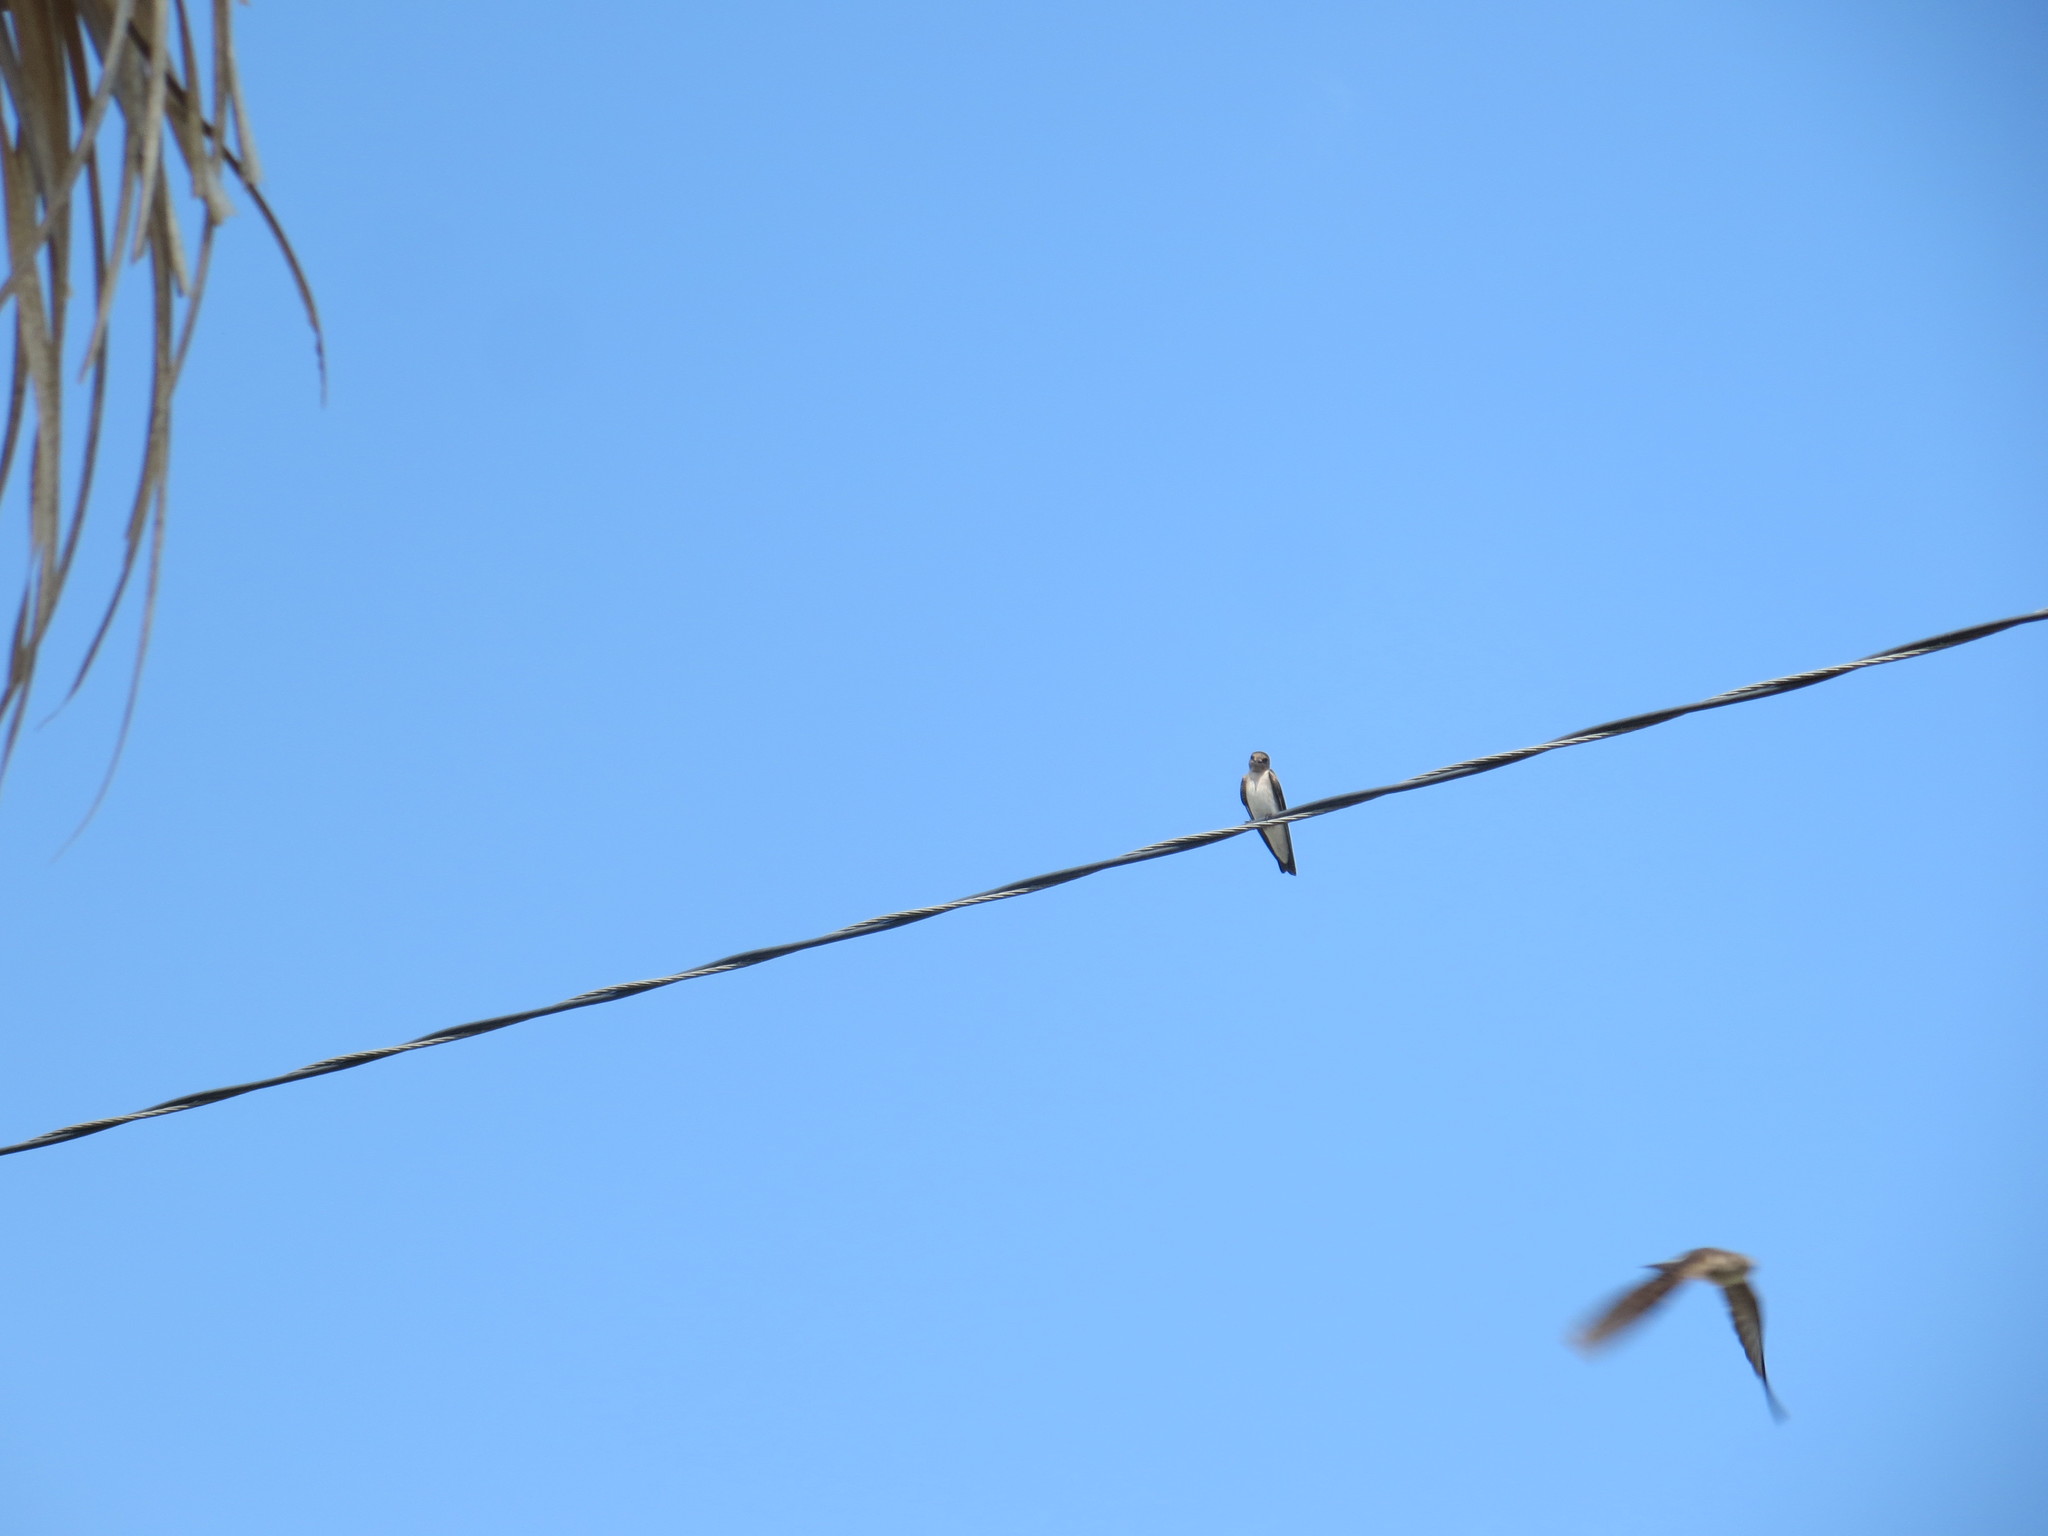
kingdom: Animalia
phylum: Chordata
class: Aves
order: Passeriformes
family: Hirundinidae
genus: Stelgidopteryx
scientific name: Stelgidopteryx serripennis
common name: Northern rough-winged swallow
